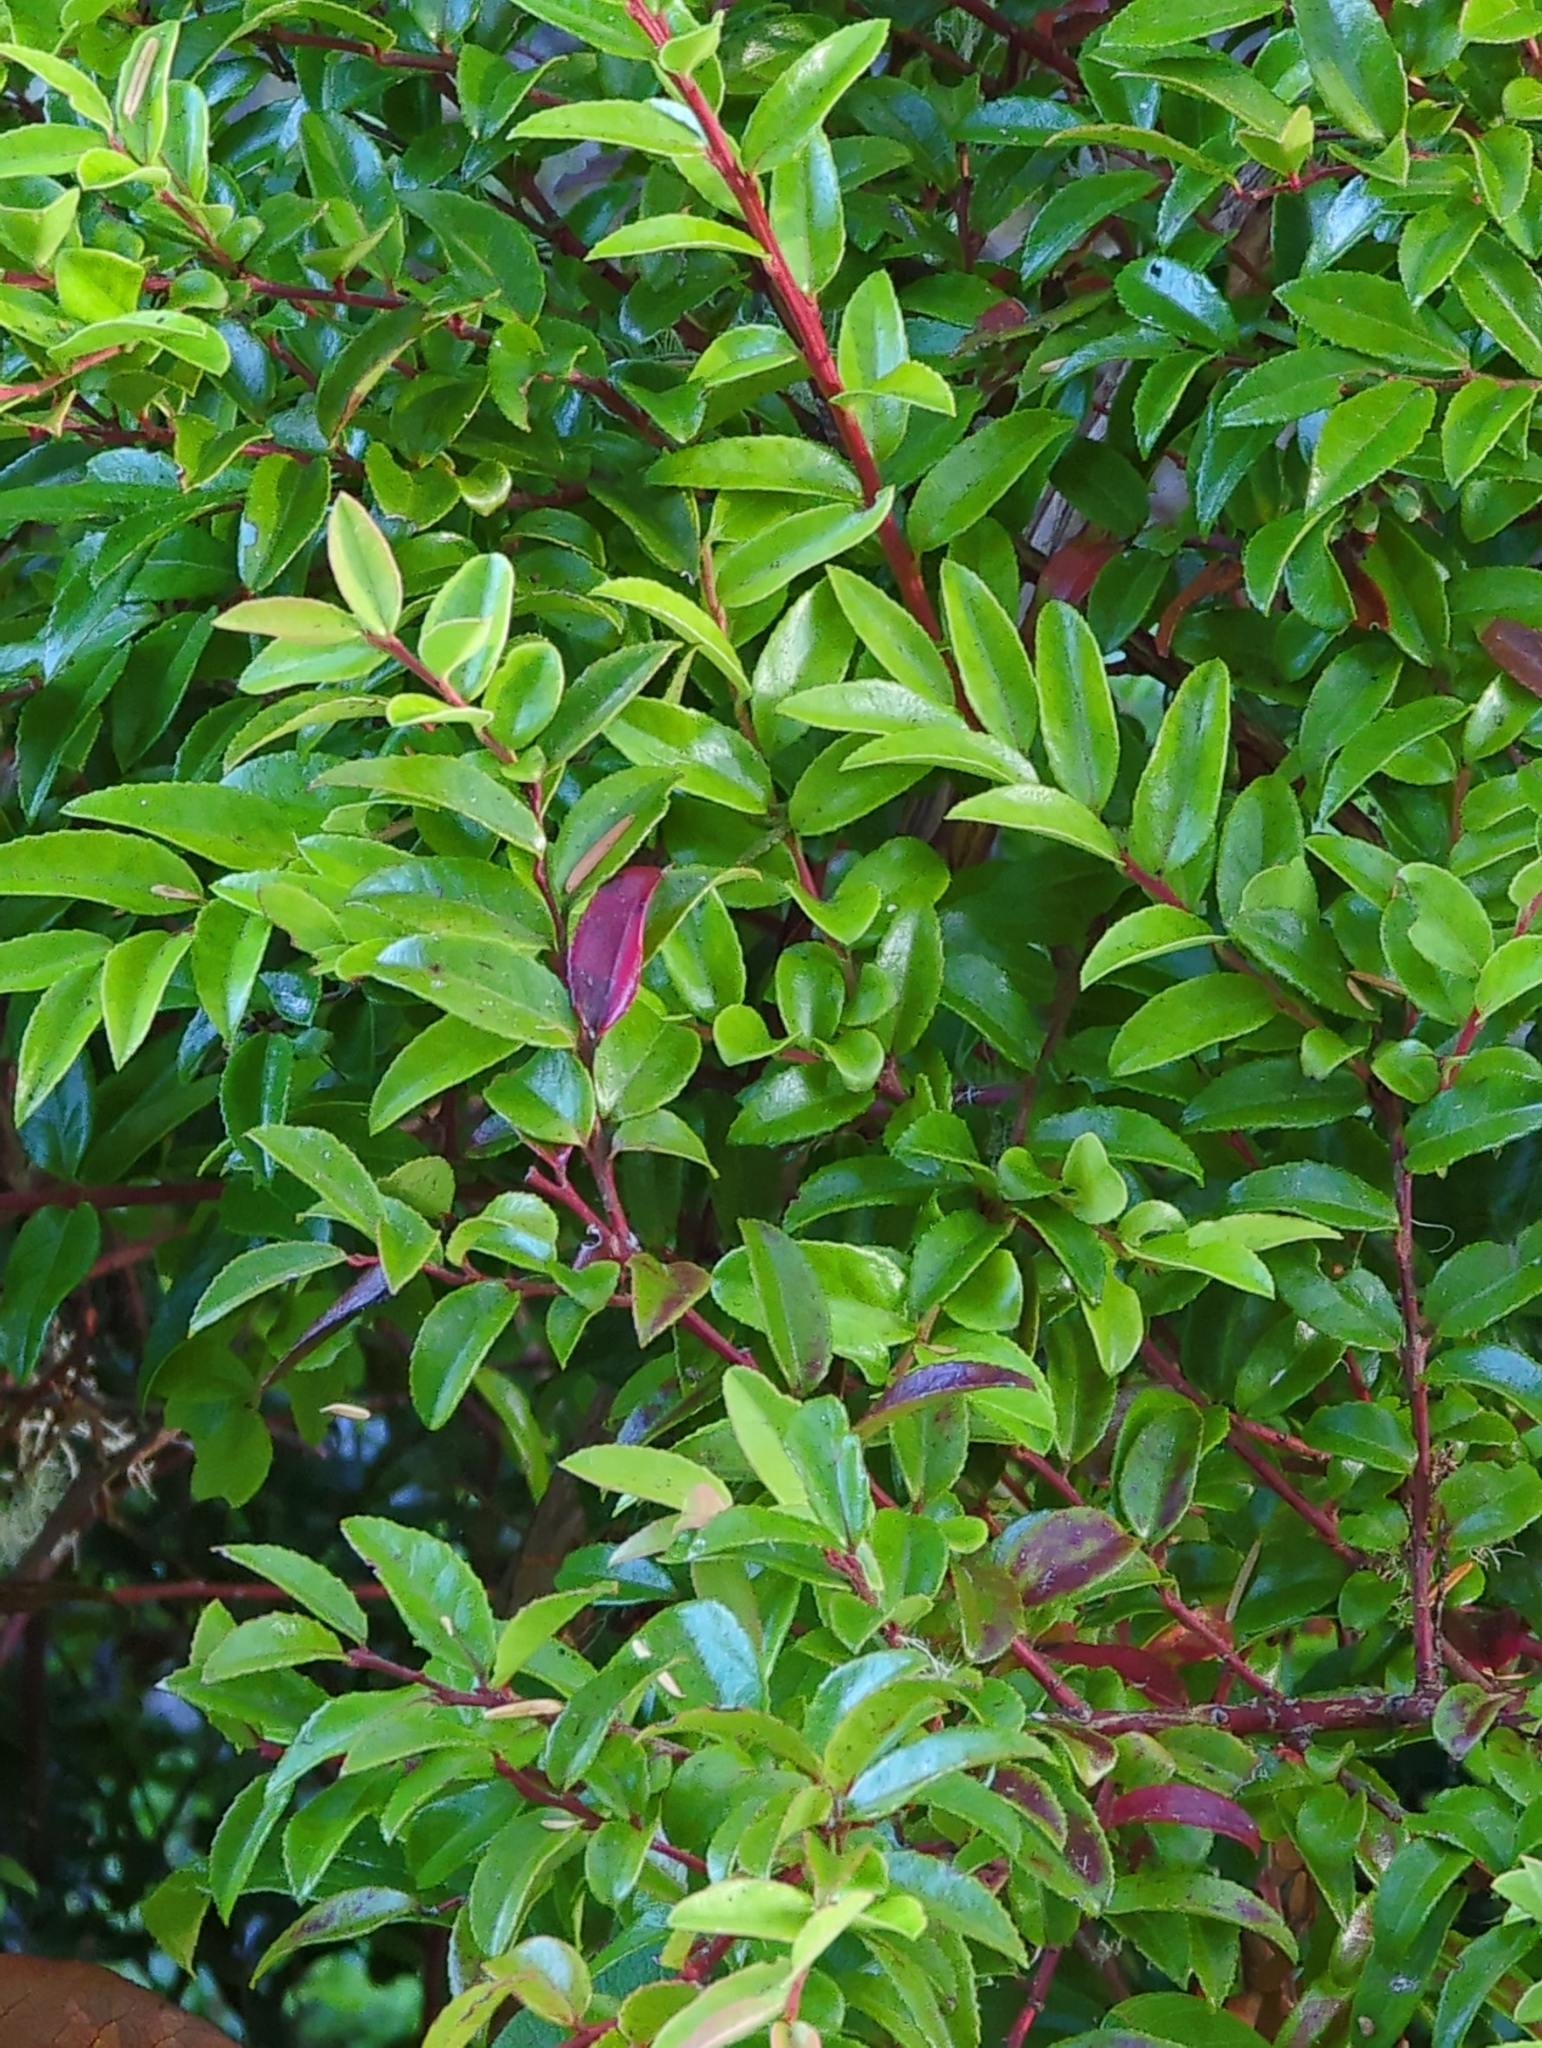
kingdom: Plantae
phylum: Tracheophyta
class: Magnoliopsida
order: Ericales
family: Ericaceae
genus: Vaccinium
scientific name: Vaccinium ovatum
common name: California-huckleberry
